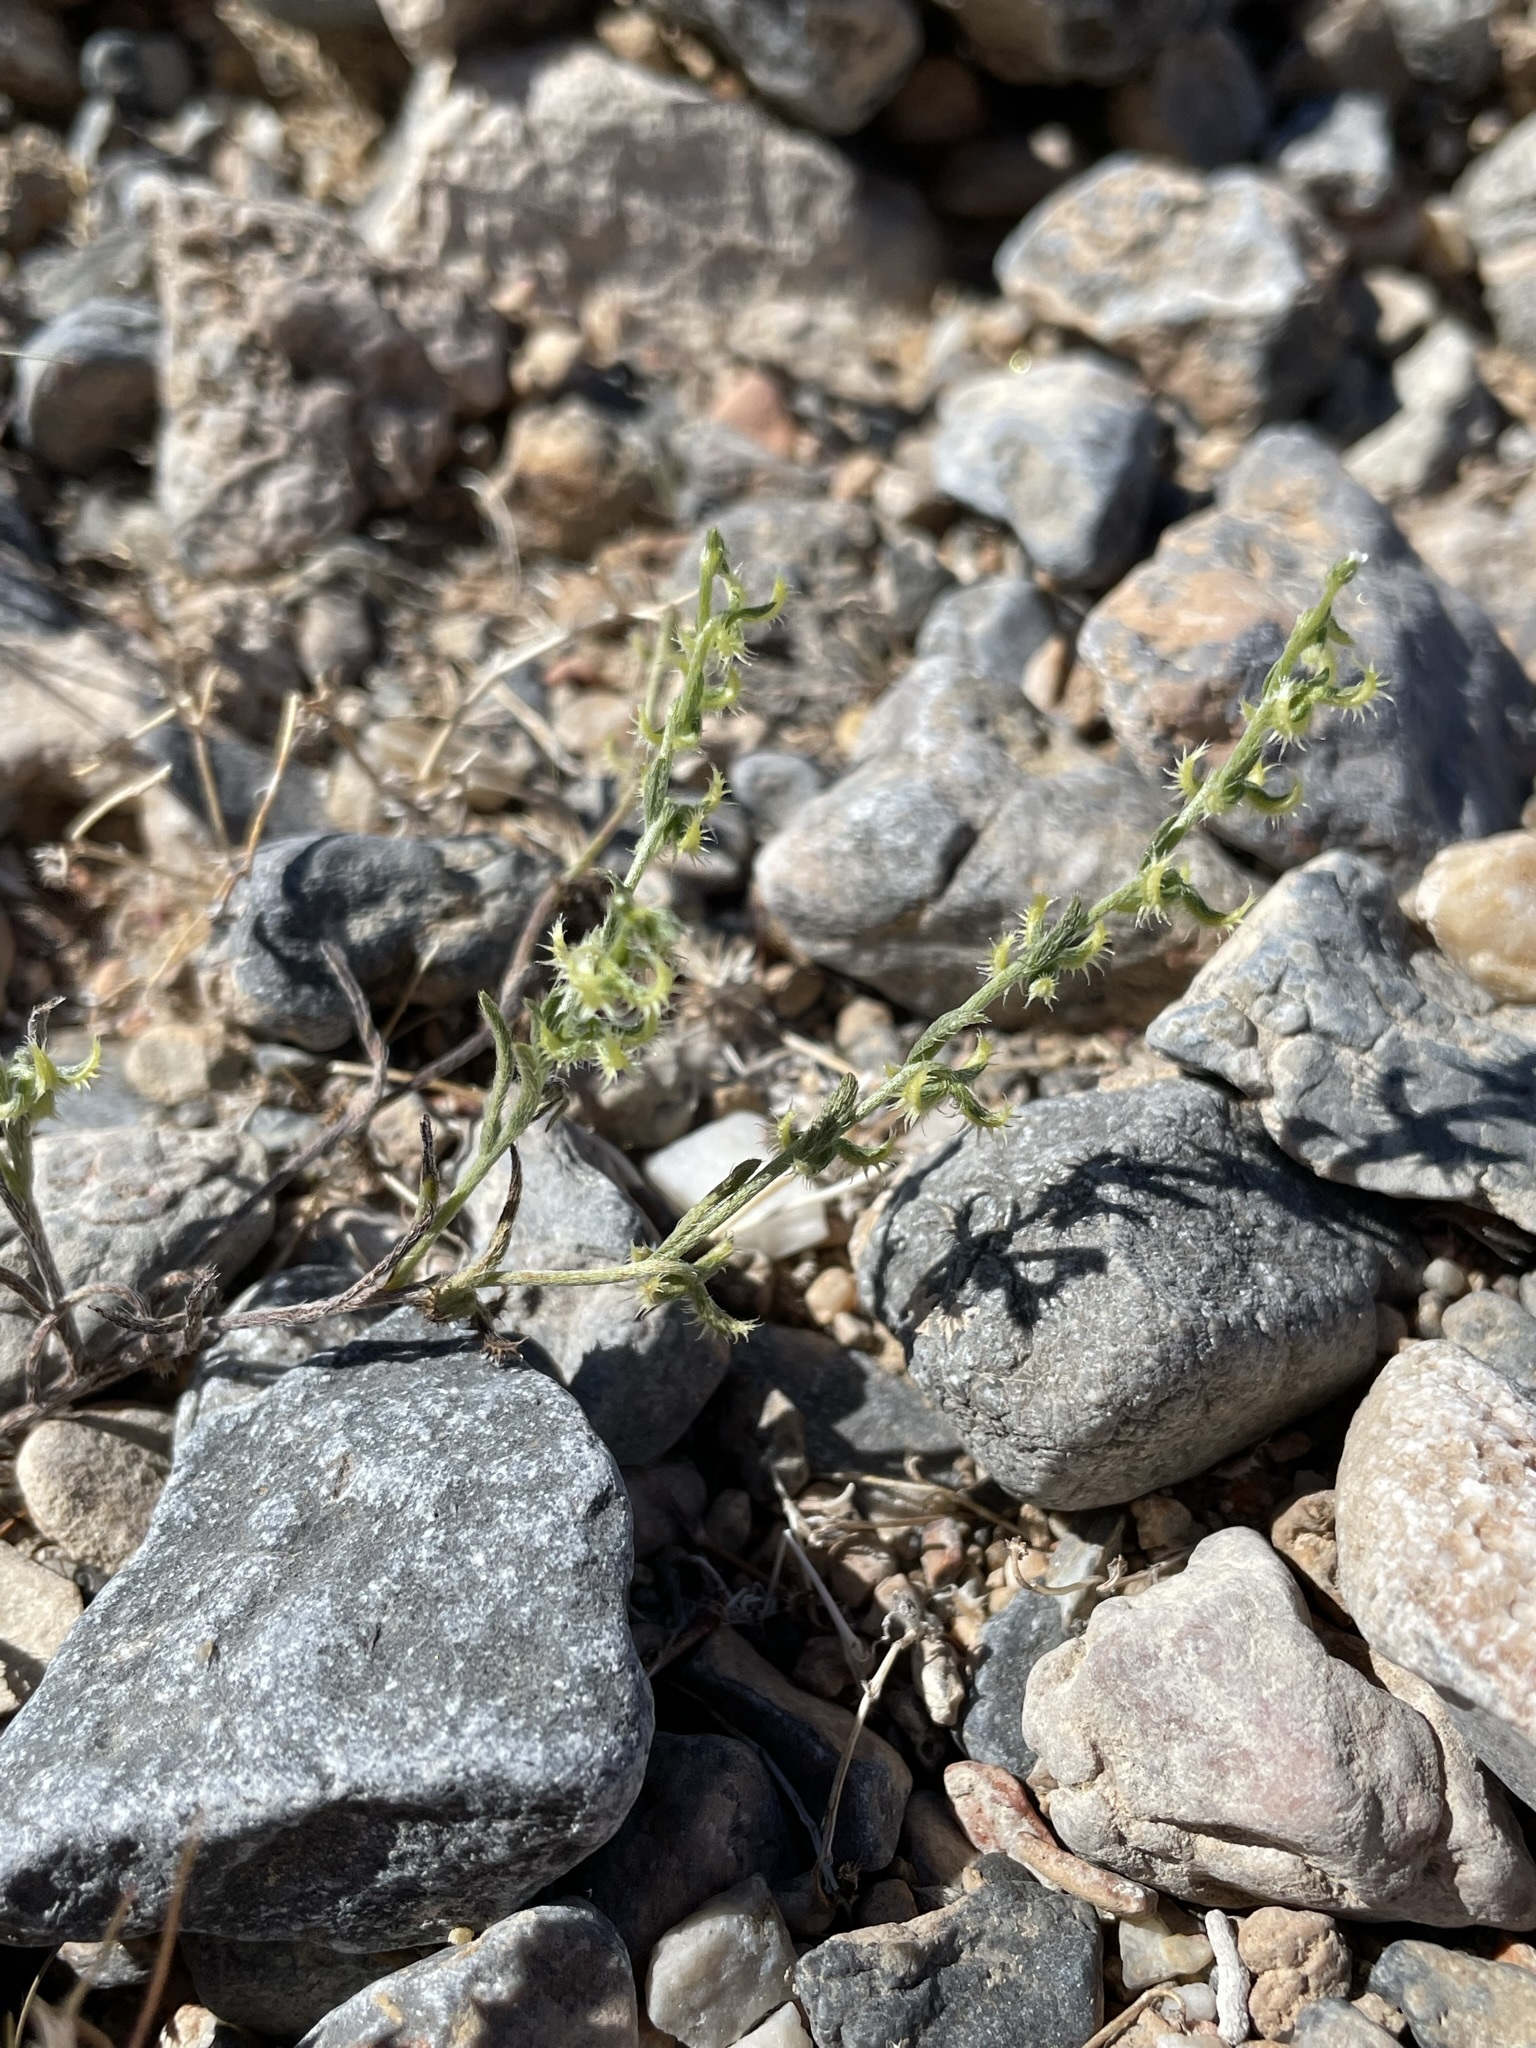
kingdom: Plantae
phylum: Tracheophyta
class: Magnoliopsida
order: Boraginales
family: Boraginaceae
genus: Pectocarya
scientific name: Pectocarya recurvata
